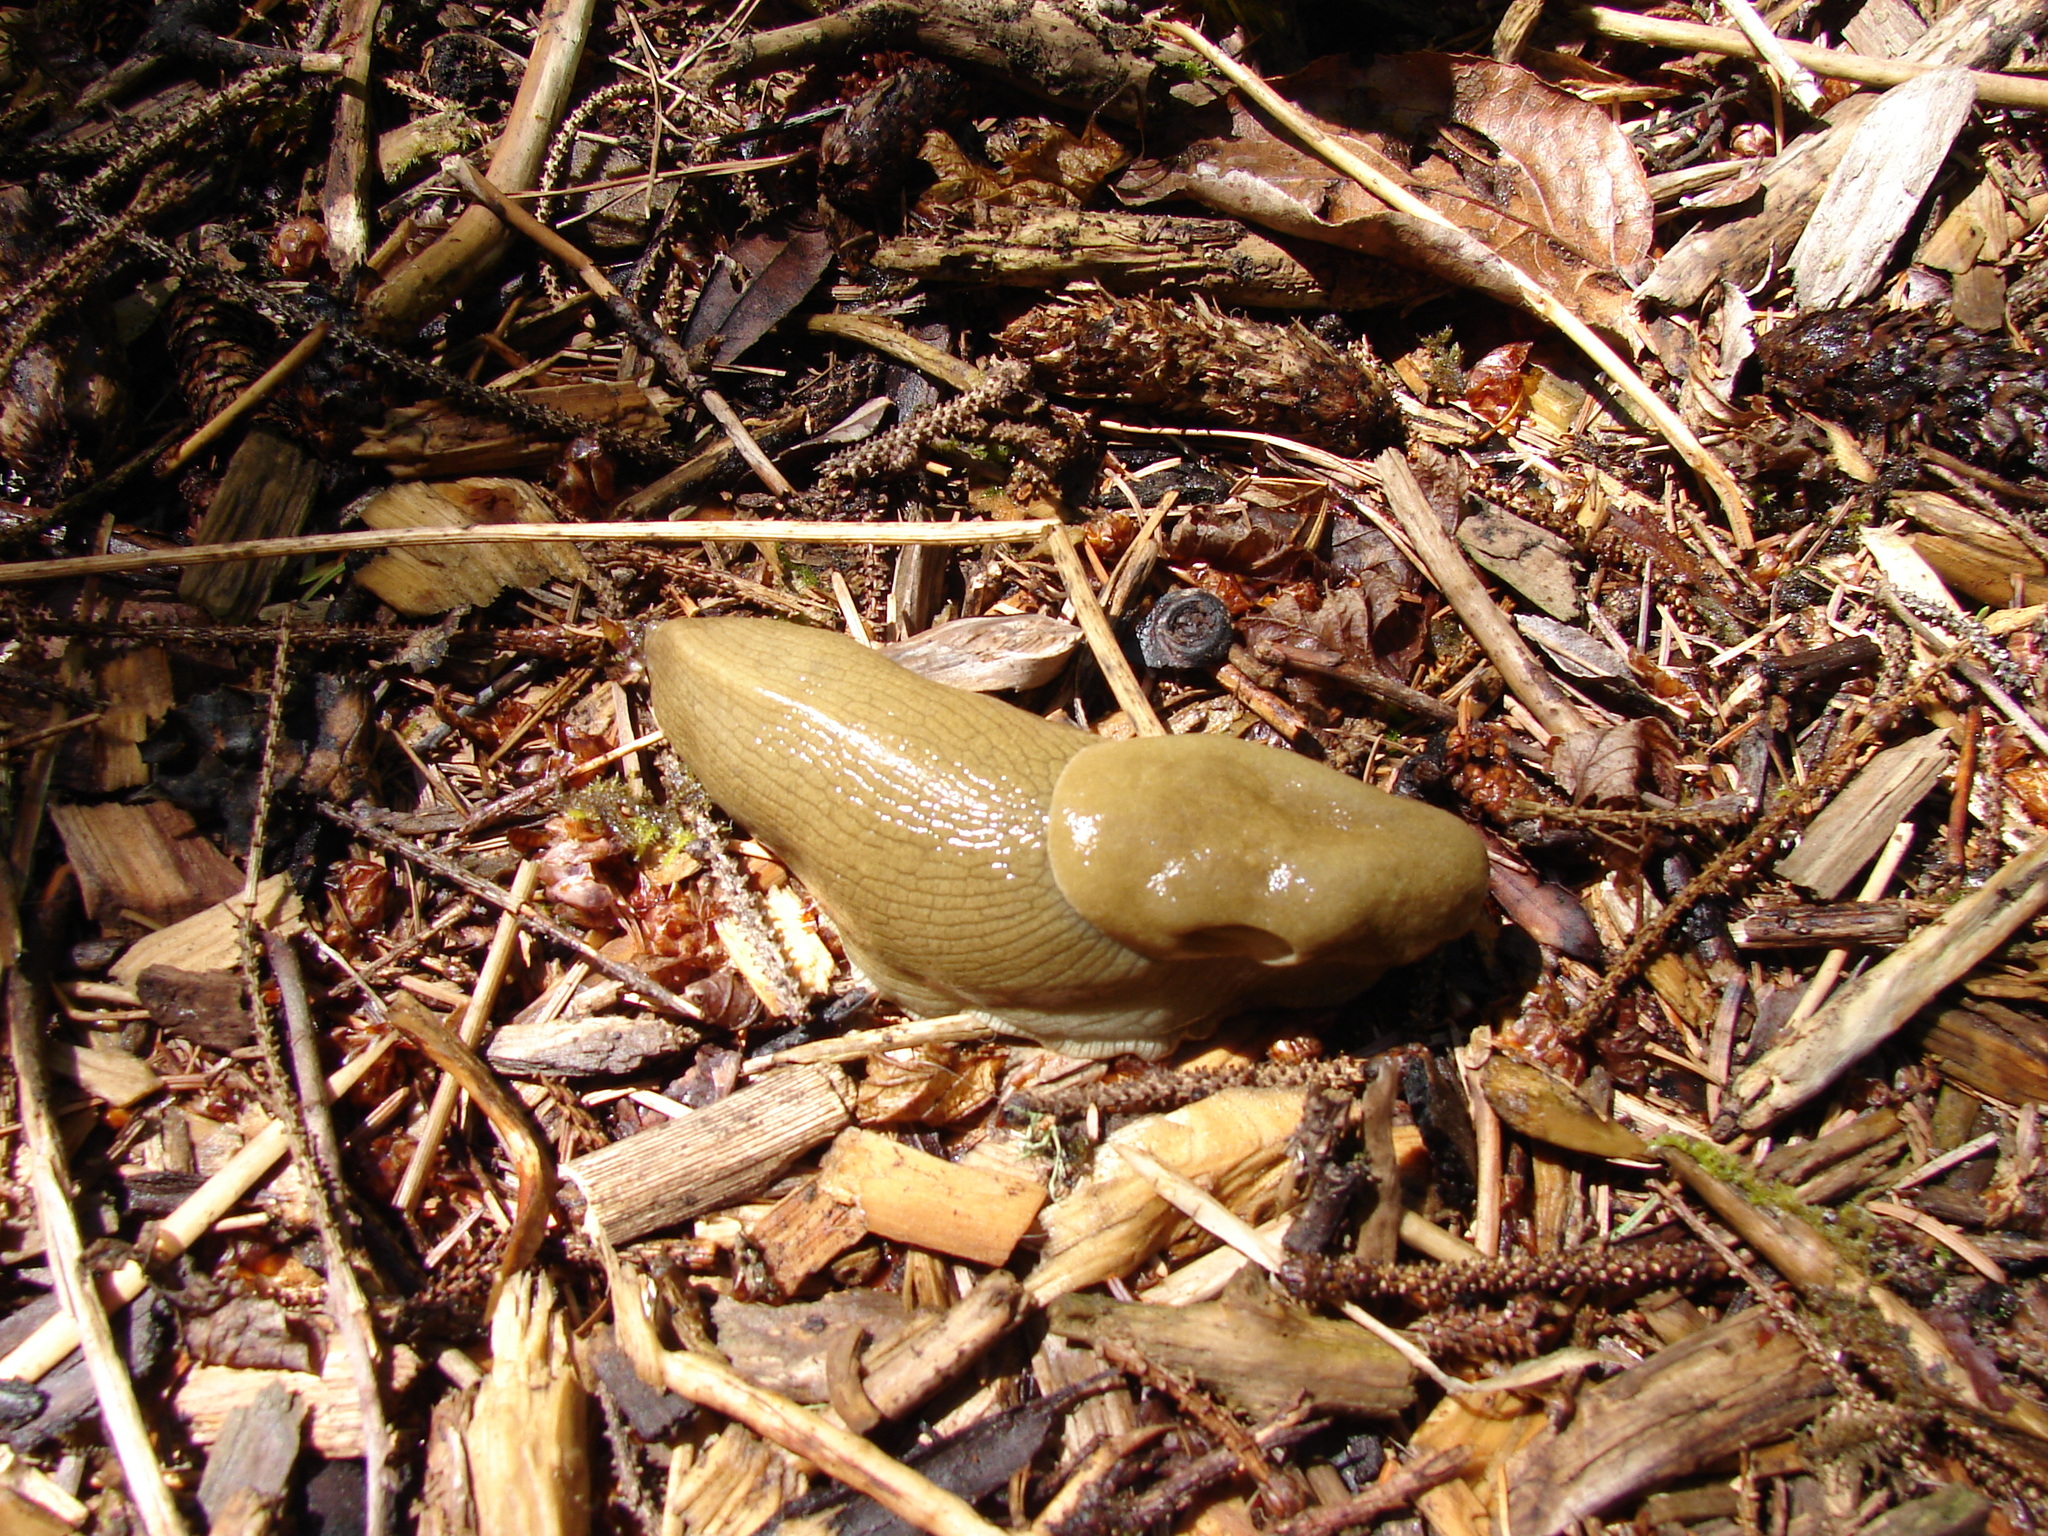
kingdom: Animalia
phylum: Mollusca
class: Gastropoda
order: Stylommatophora
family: Ariolimacidae
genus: Ariolimax
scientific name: Ariolimax columbianus
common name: Pacific banana slug
